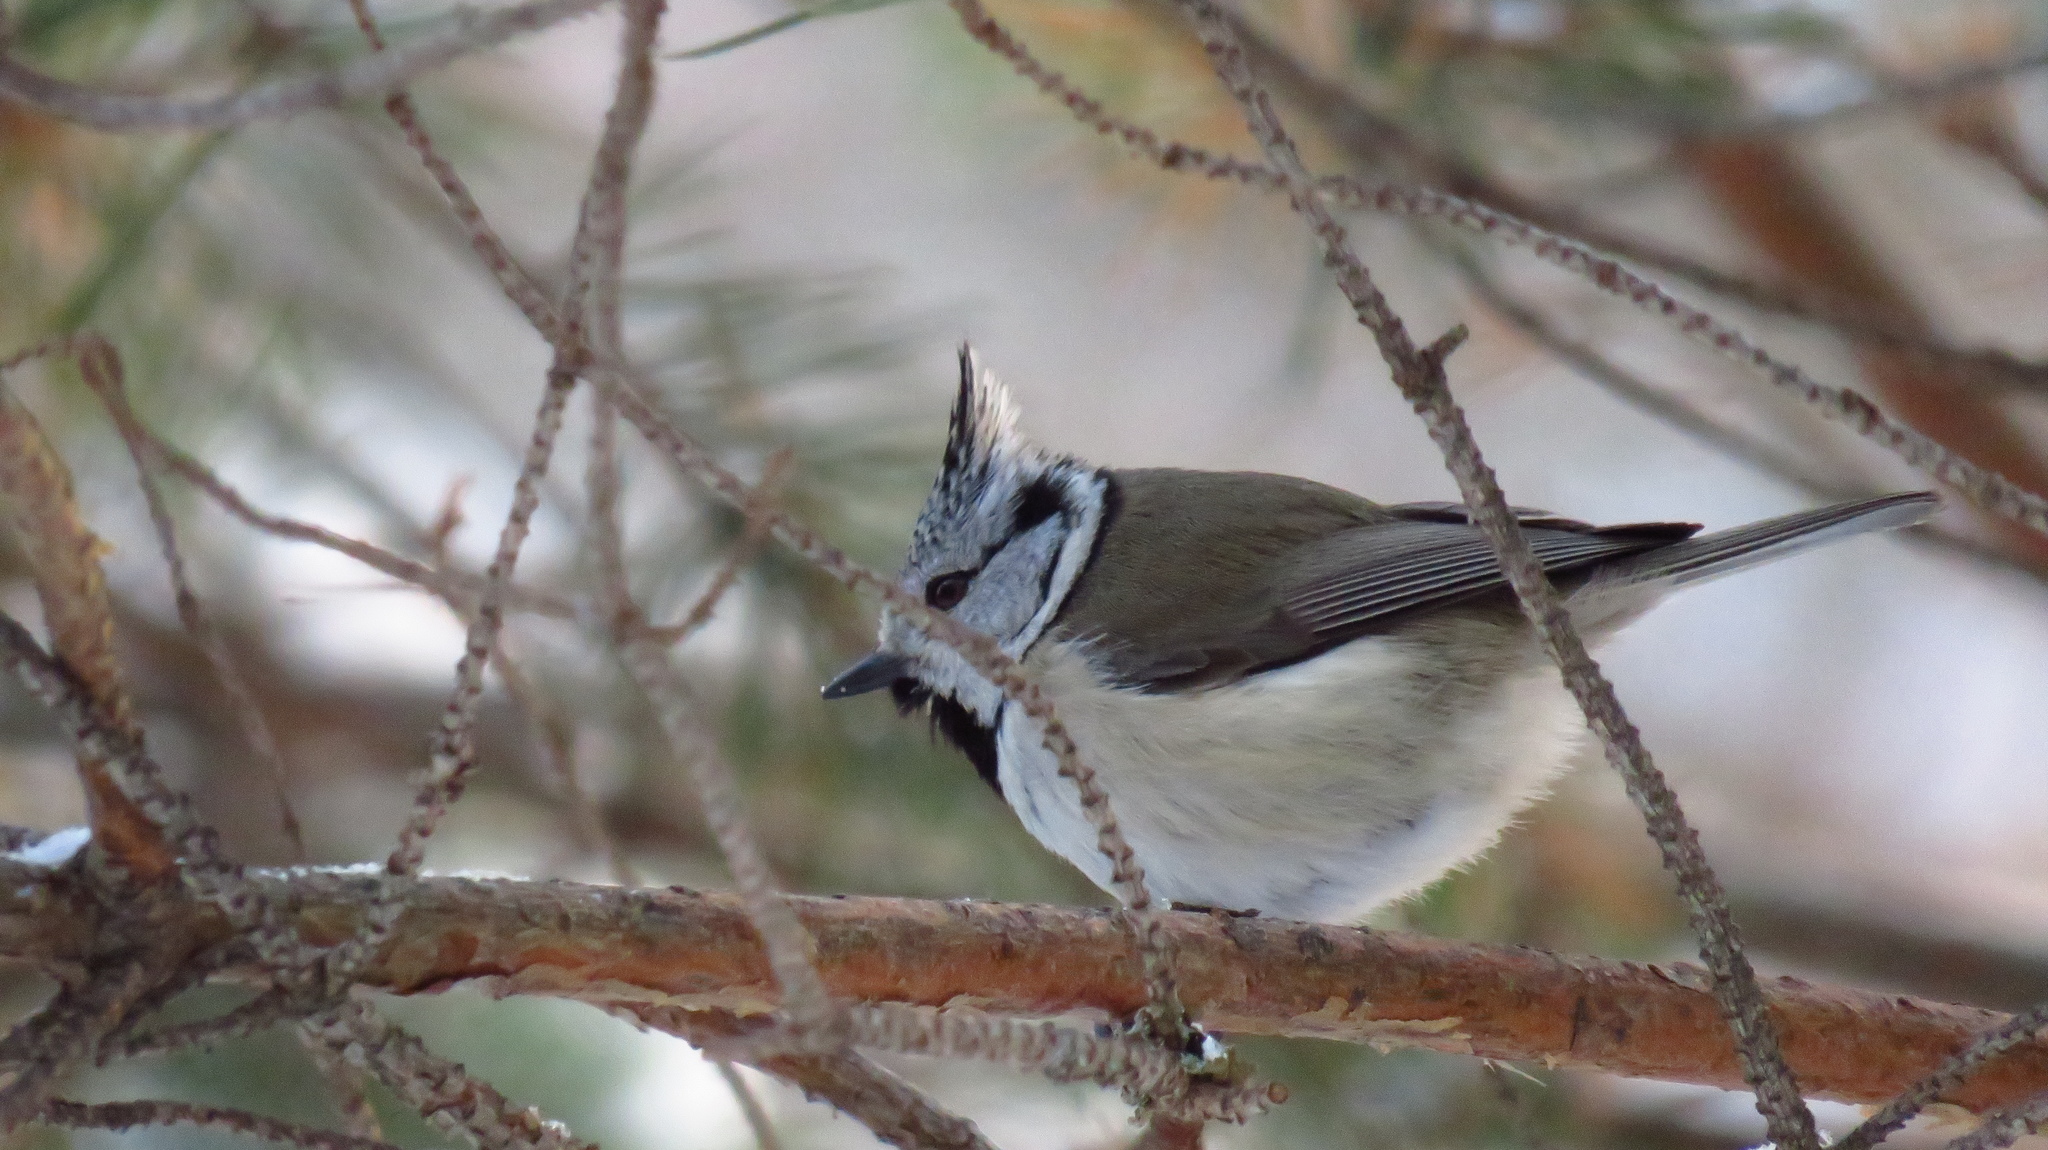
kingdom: Animalia
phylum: Chordata
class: Aves
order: Passeriformes
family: Paridae
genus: Lophophanes
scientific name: Lophophanes cristatus
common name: European crested tit
